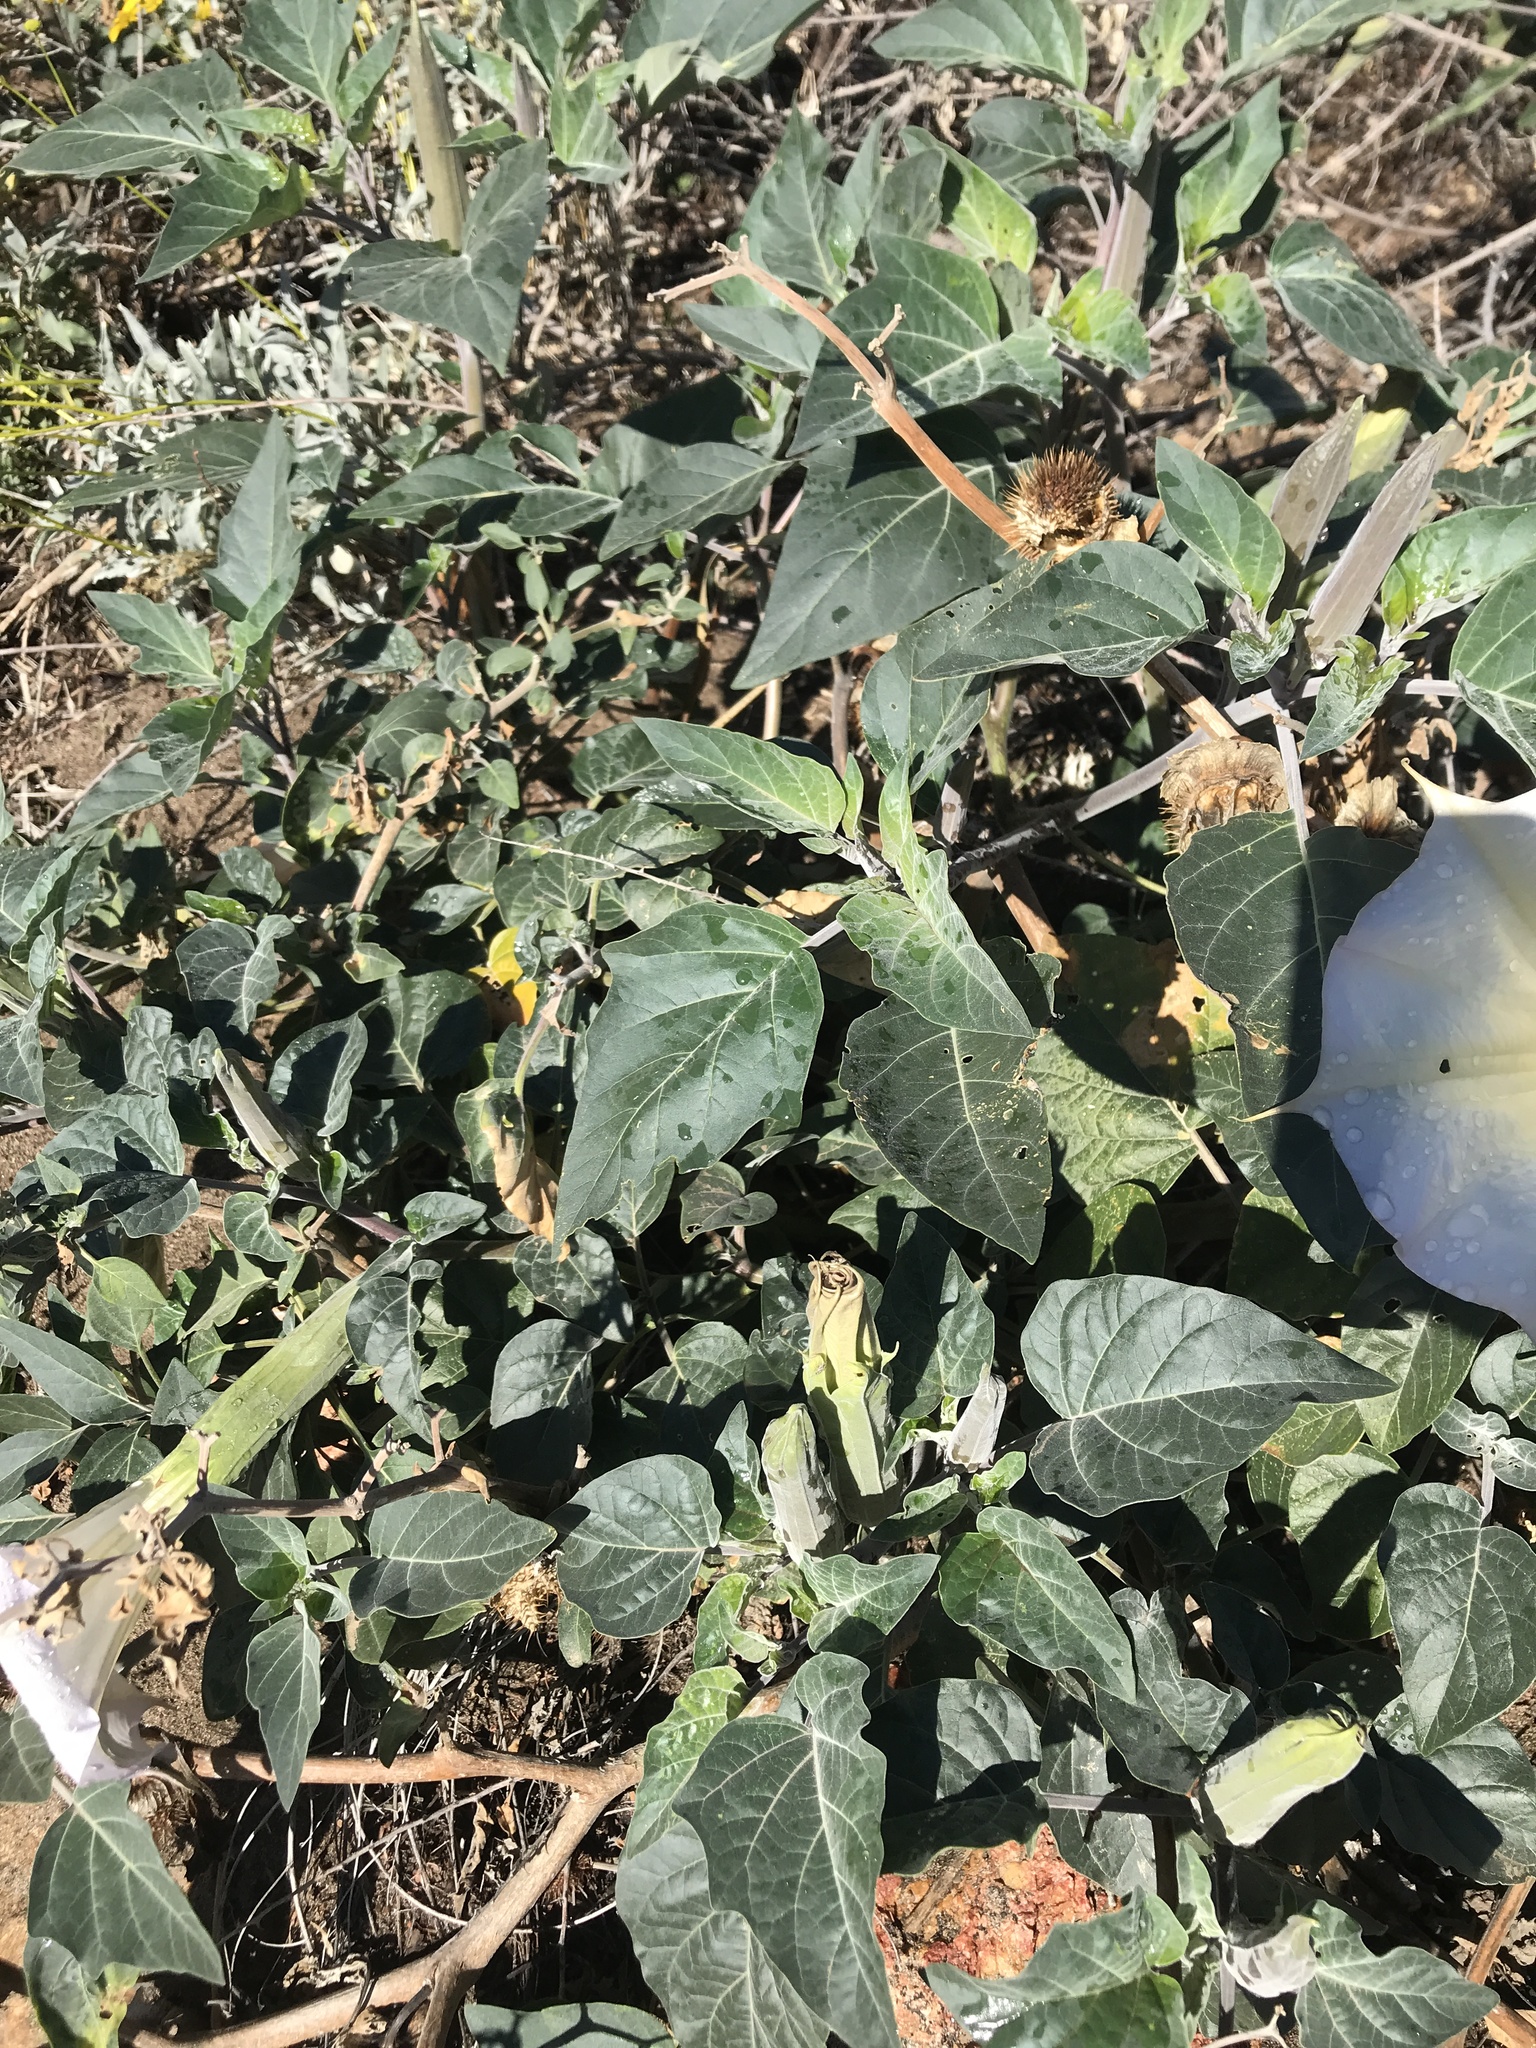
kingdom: Plantae
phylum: Tracheophyta
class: Magnoliopsida
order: Solanales
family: Solanaceae
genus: Datura
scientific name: Datura wrightii
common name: Sacred thorn-apple
